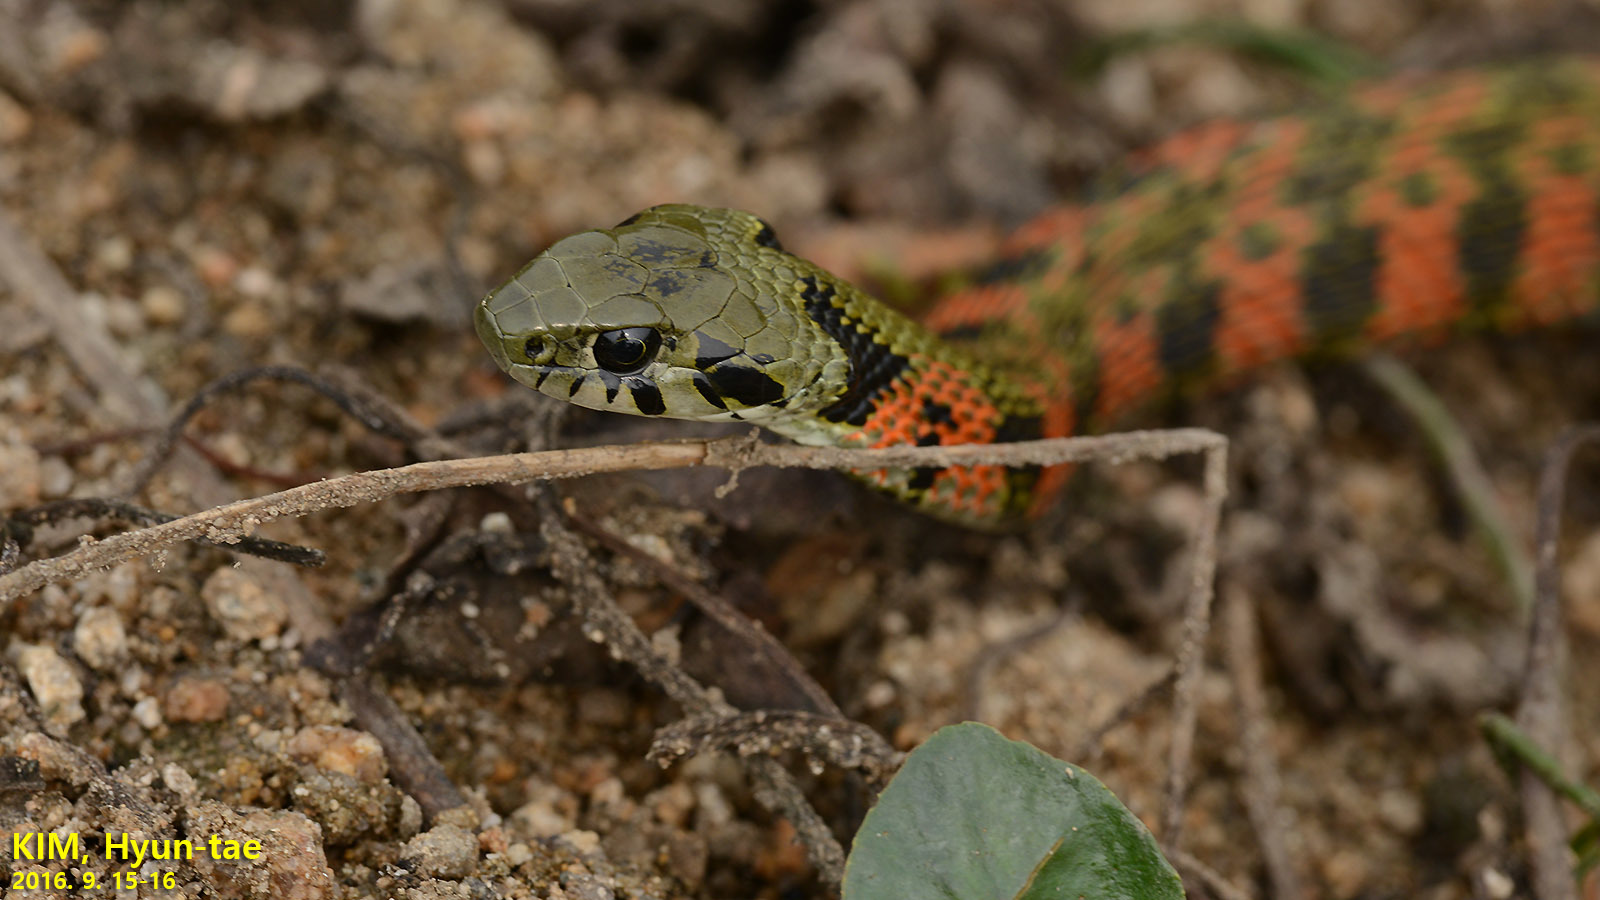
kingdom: Animalia
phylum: Chordata
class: Squamata
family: Colubridae
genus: Rhabdophis
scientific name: Rhabdophis tigrinus
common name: Tiger keelback
